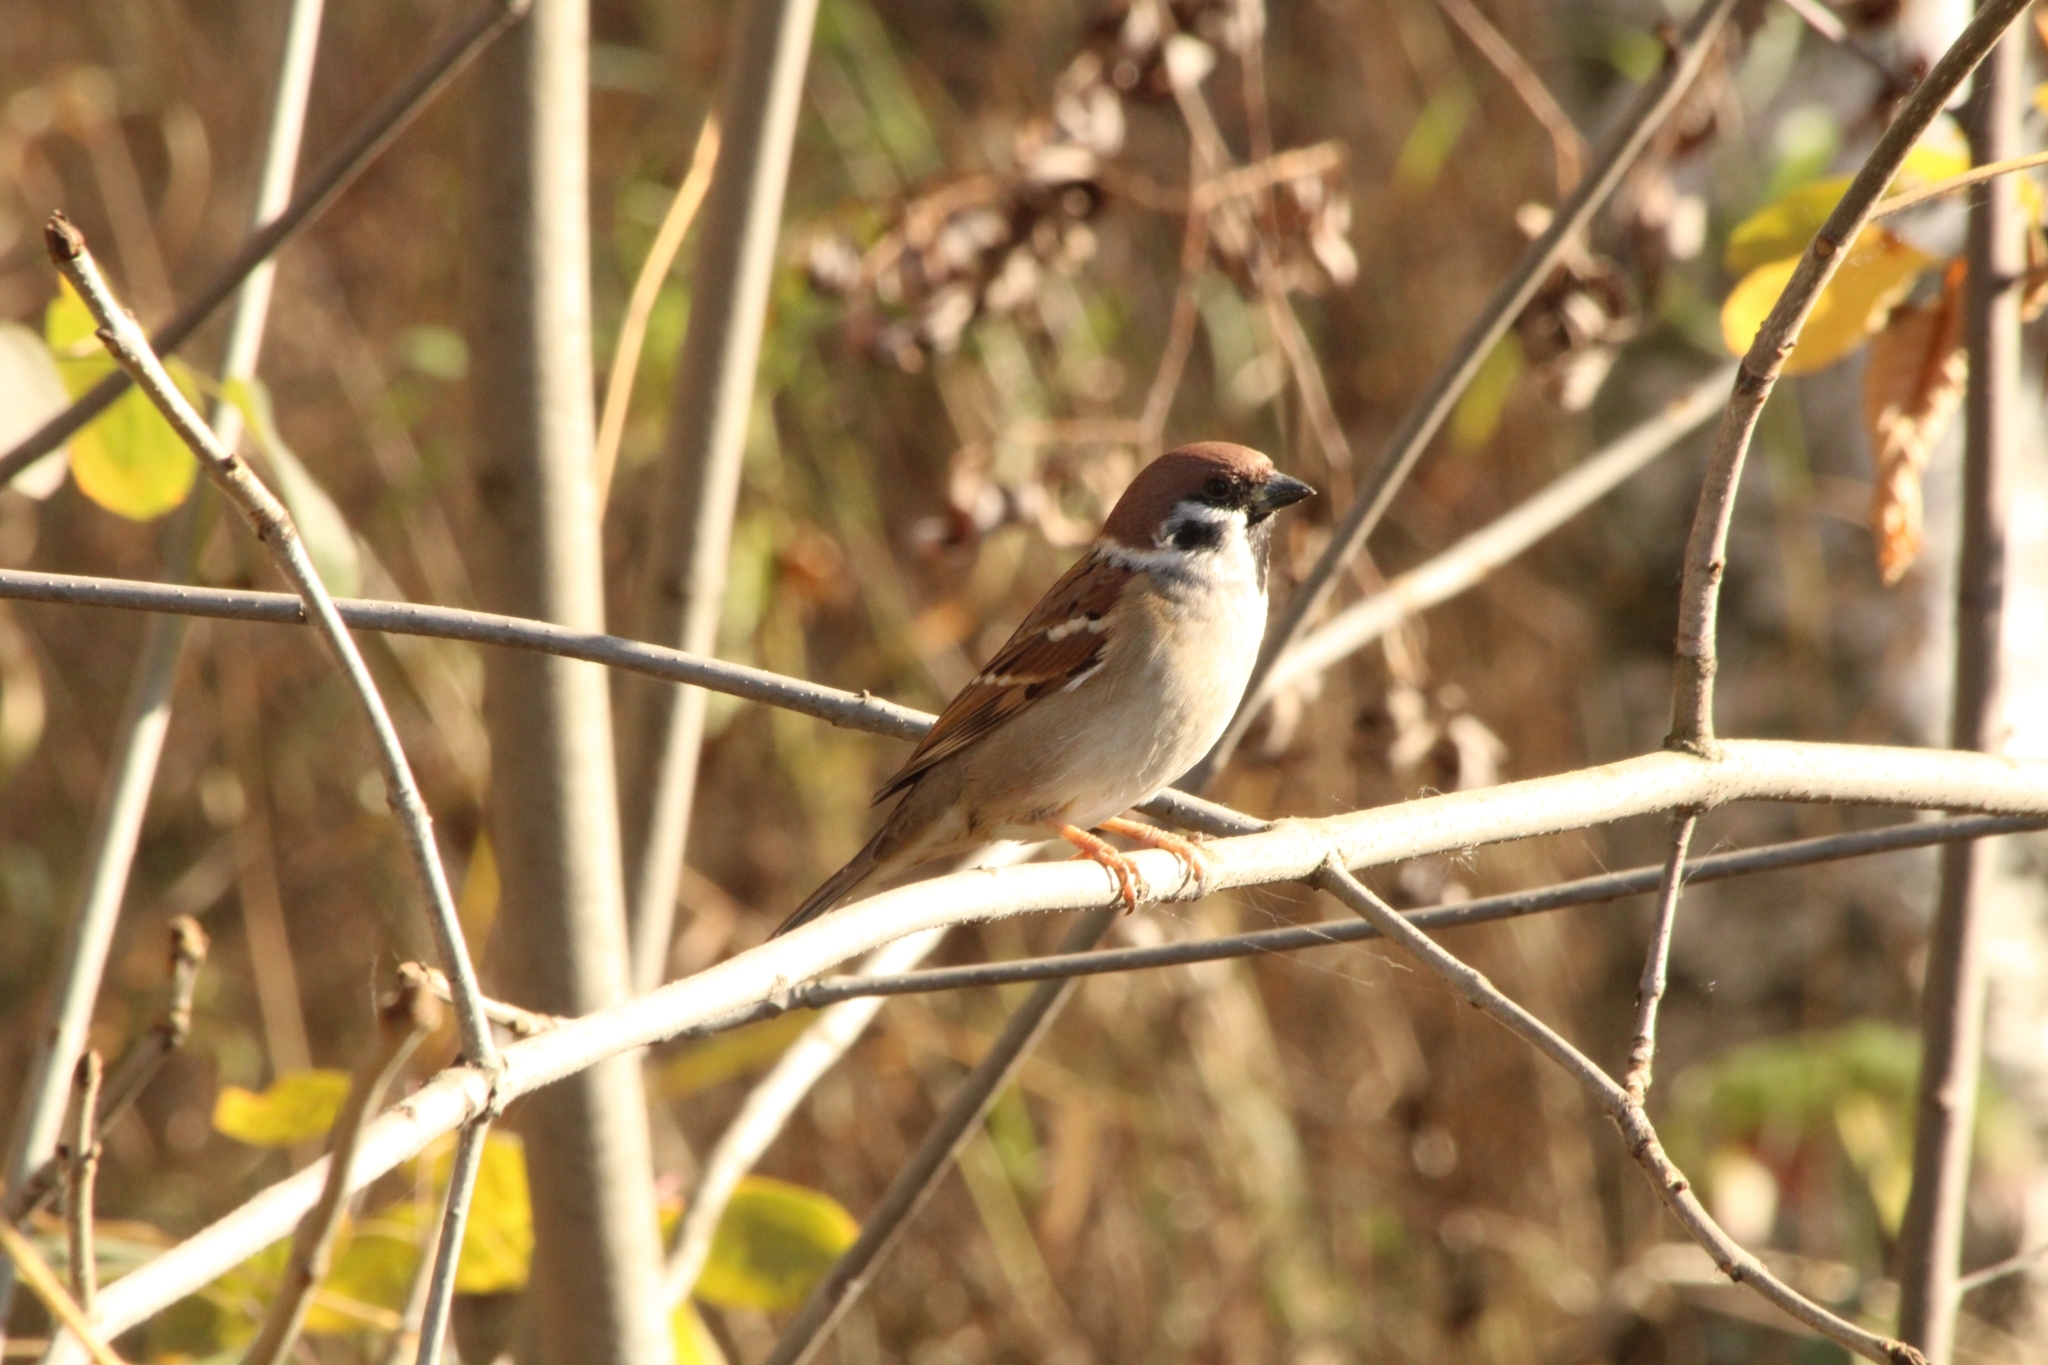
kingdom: Animalia
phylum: Chordata
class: Aves
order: Passeriformes
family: Passeridae
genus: Passer
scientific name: Passer montanus
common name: Eurasian tree sparrow
